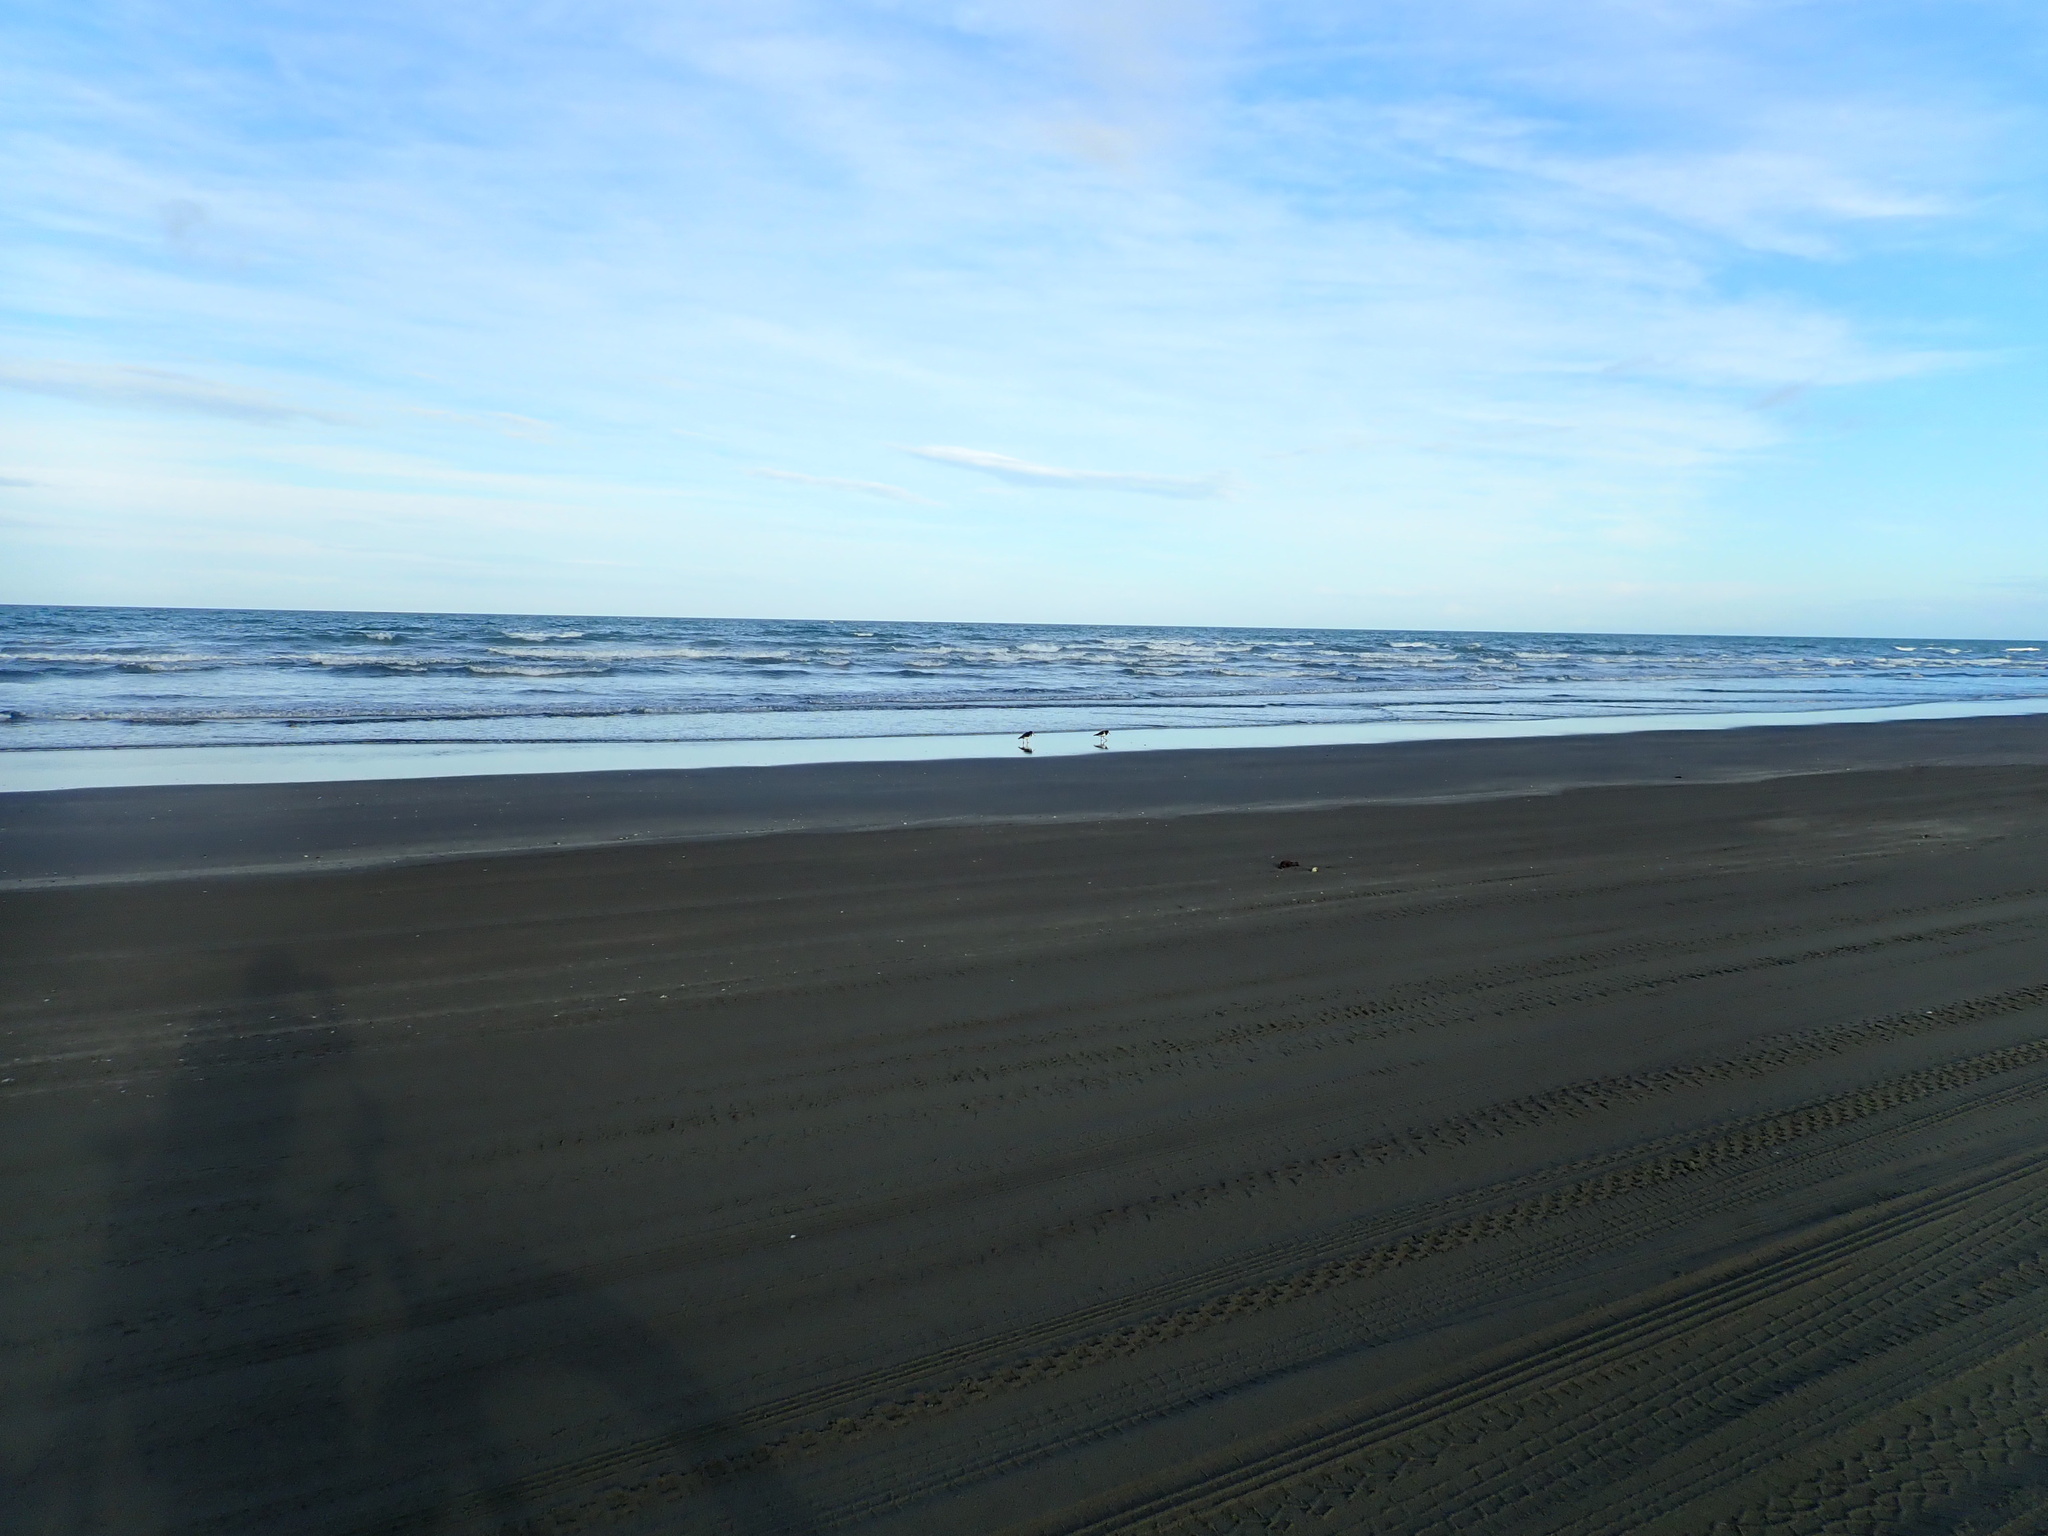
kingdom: Animalia
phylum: Chordata
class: Aves
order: Charadriiformes
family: Haematopodidae
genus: Haematopus
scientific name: Haematopus finschi
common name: South island oystercatcher
